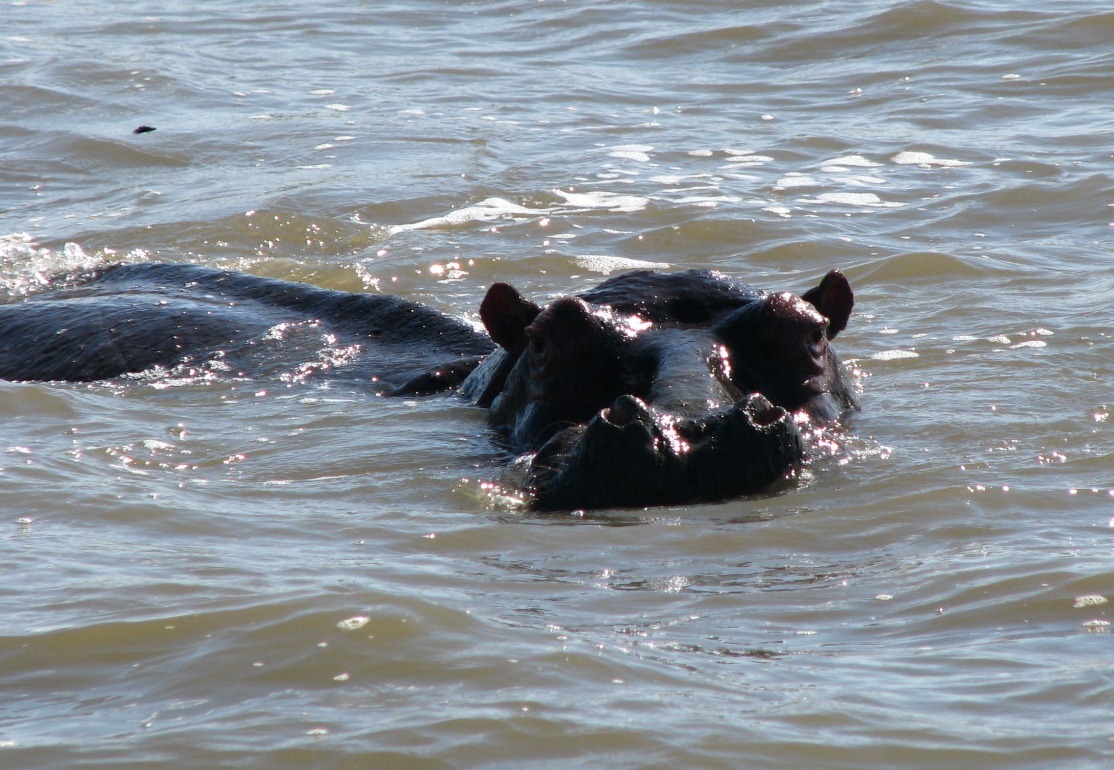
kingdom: Animalia
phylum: Chordata
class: Mammalia
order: Artiodactyla
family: Hippopotamidae
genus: Hippopotamus
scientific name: Hippopotamus amphibius
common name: Common hippopotamus
